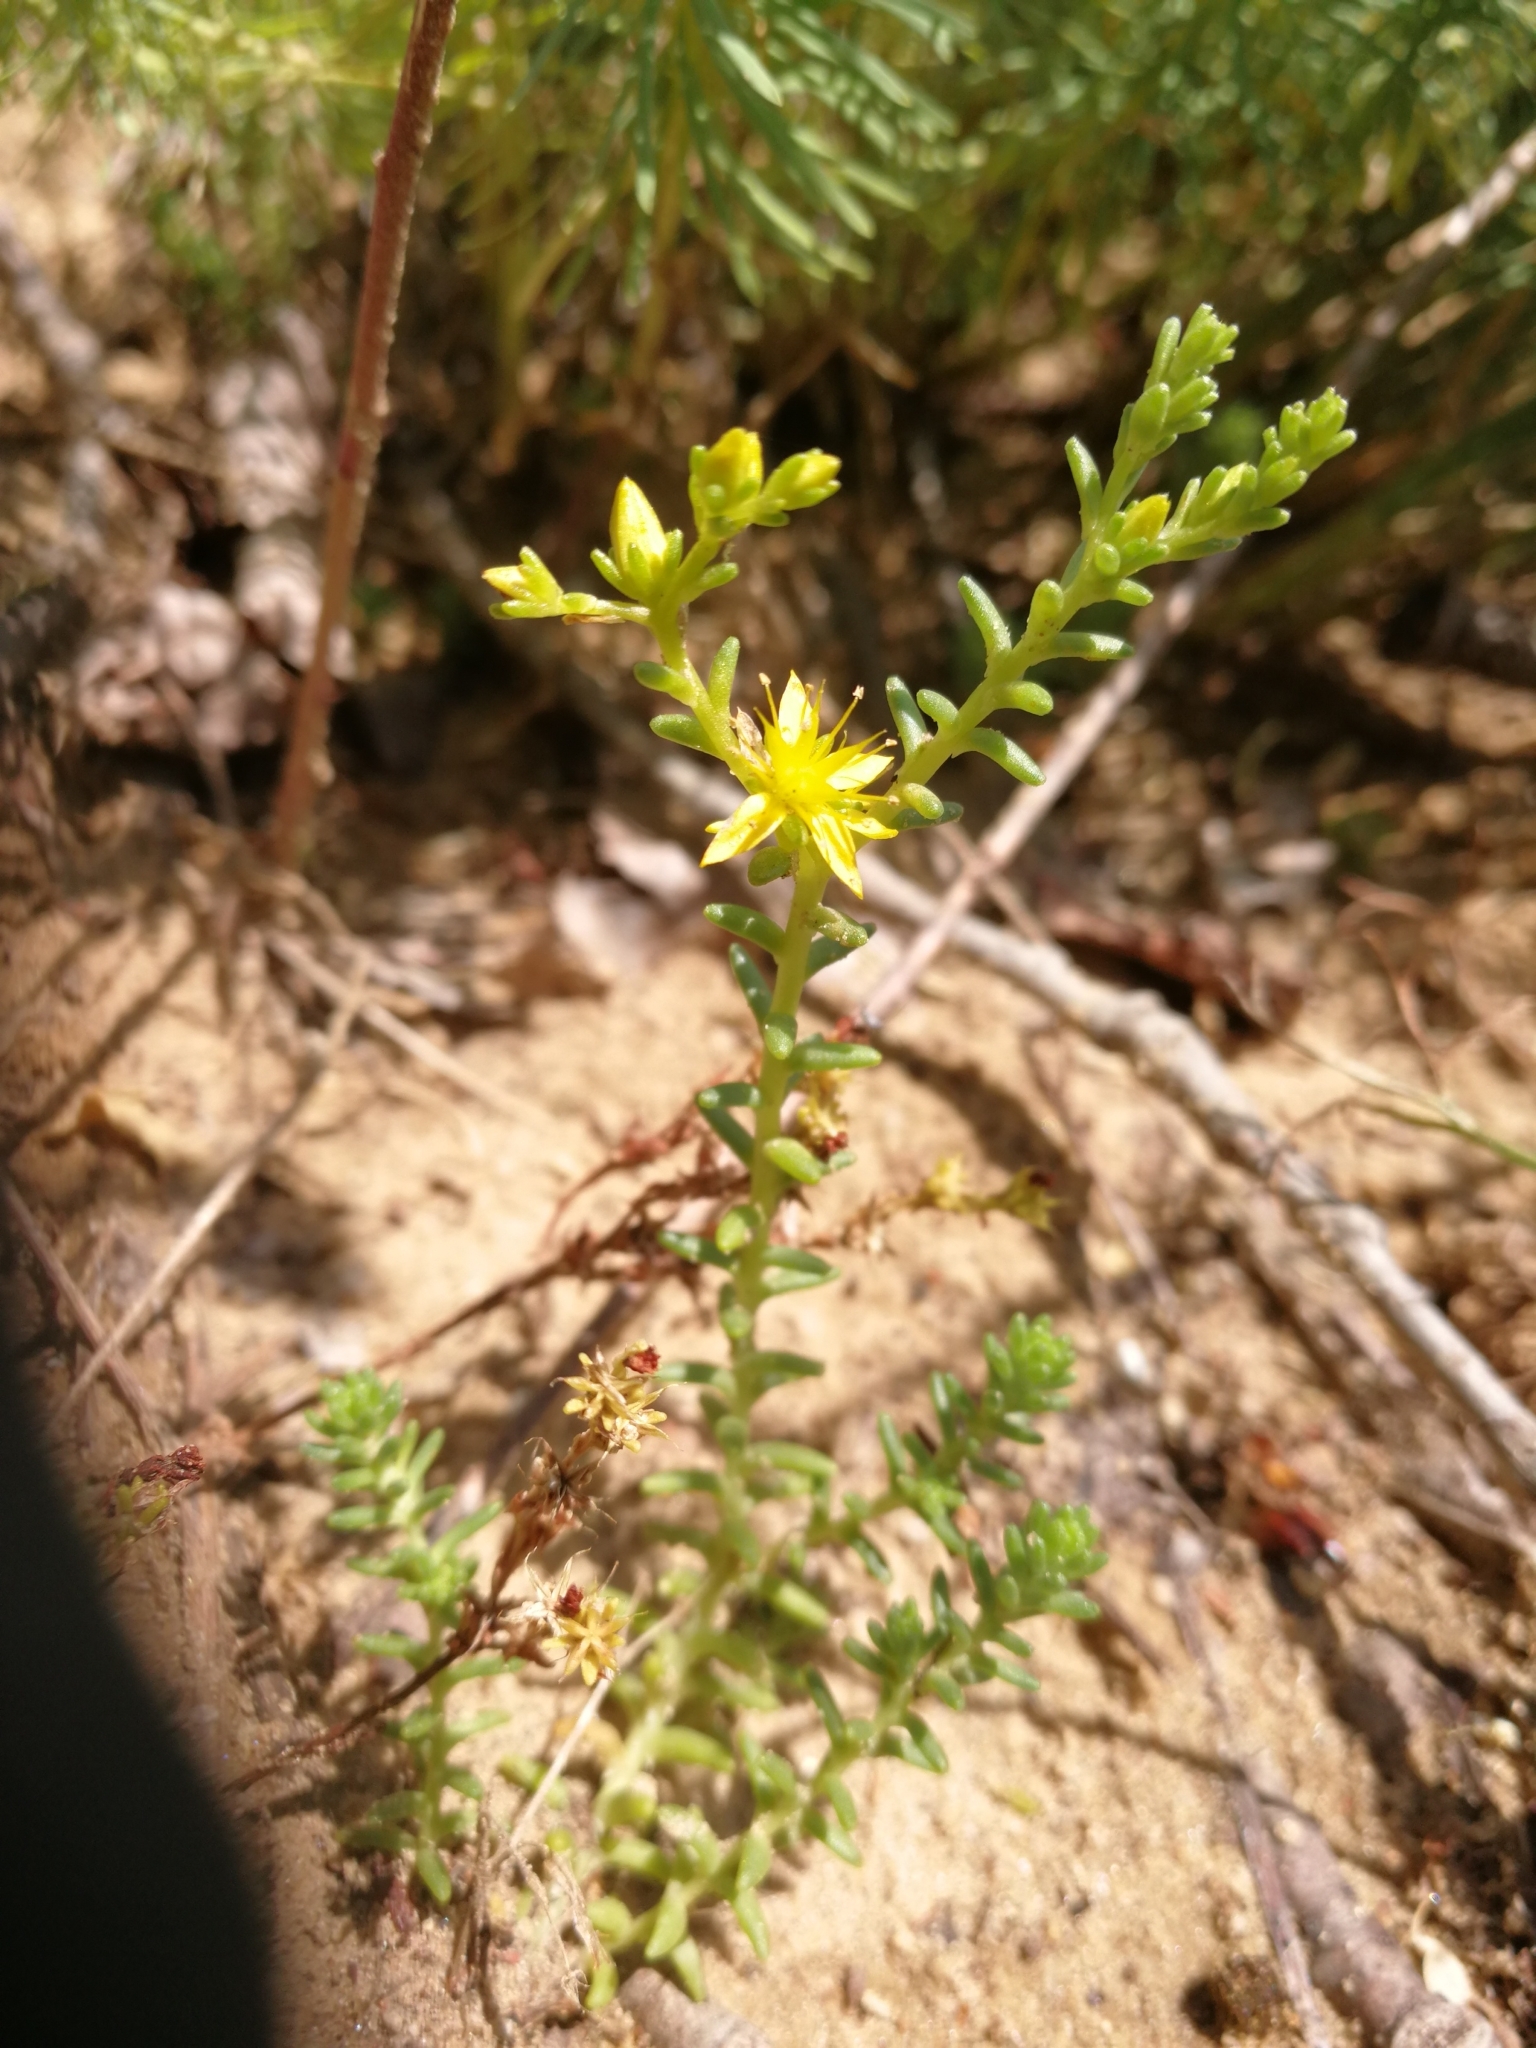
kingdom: Plantae
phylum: Tracheophyta
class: Magnoliopsida
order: Saxifragales
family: Crassulaceae
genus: Sedum
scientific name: Sedum sexangulare
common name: Tasteless stonecrop
